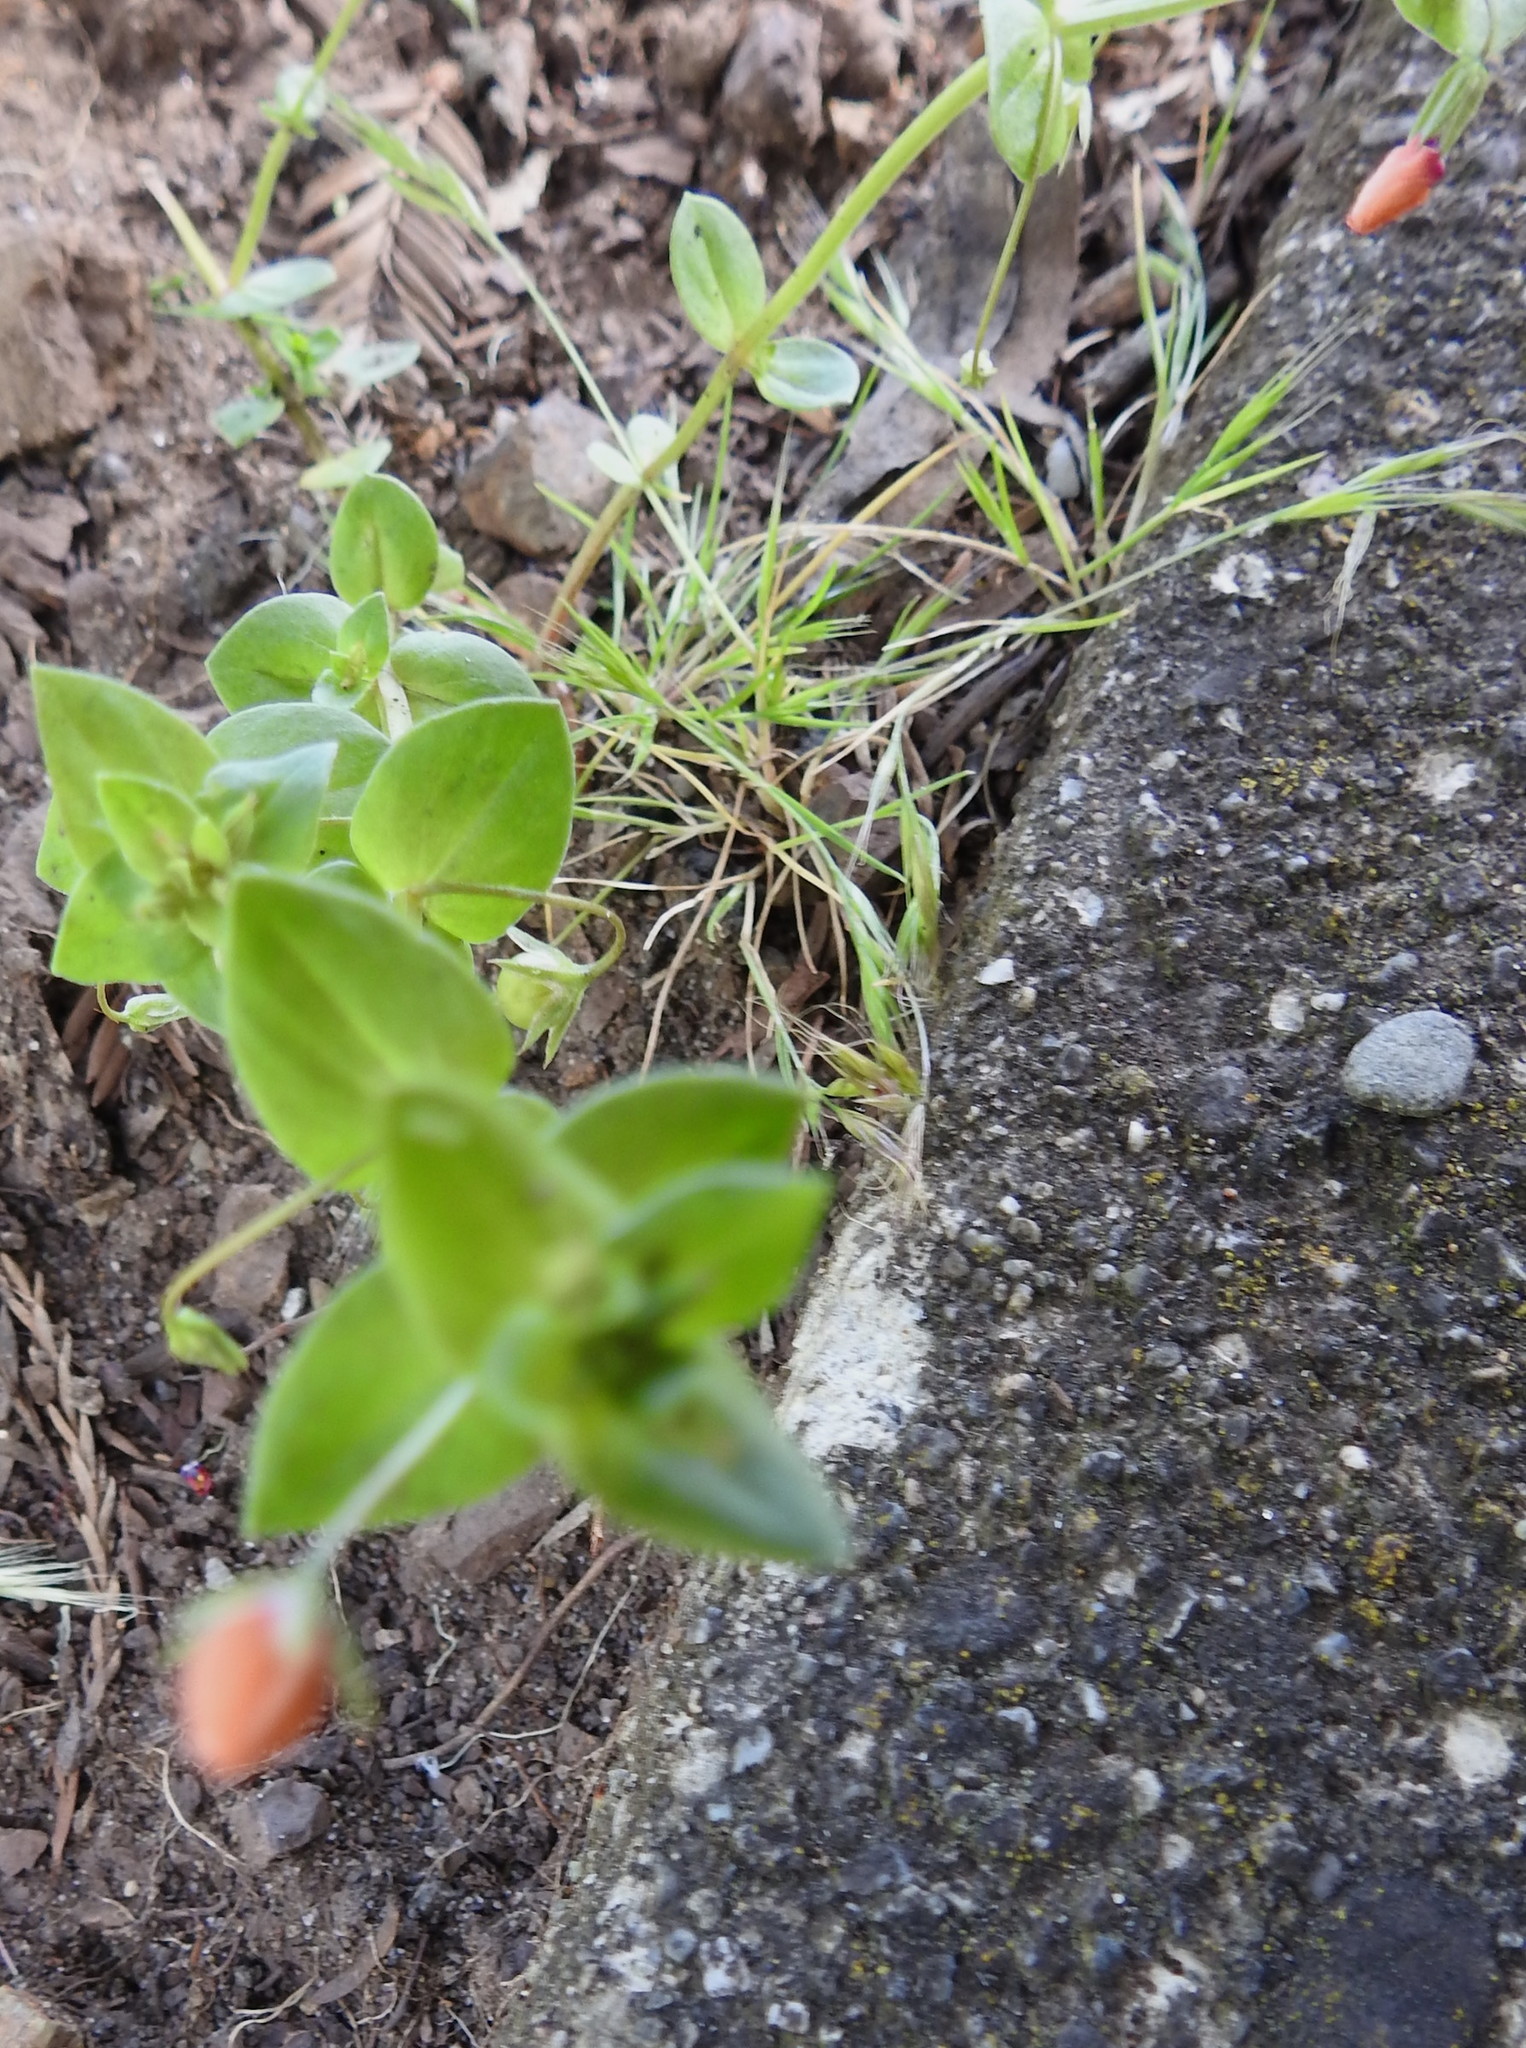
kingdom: Plantae
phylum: Tracheophyta
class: Magnoliopsida
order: Ericales
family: Primulaceae
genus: Lysimachia
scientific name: Lysimachia arvensis
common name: Scarlet pimpernel
